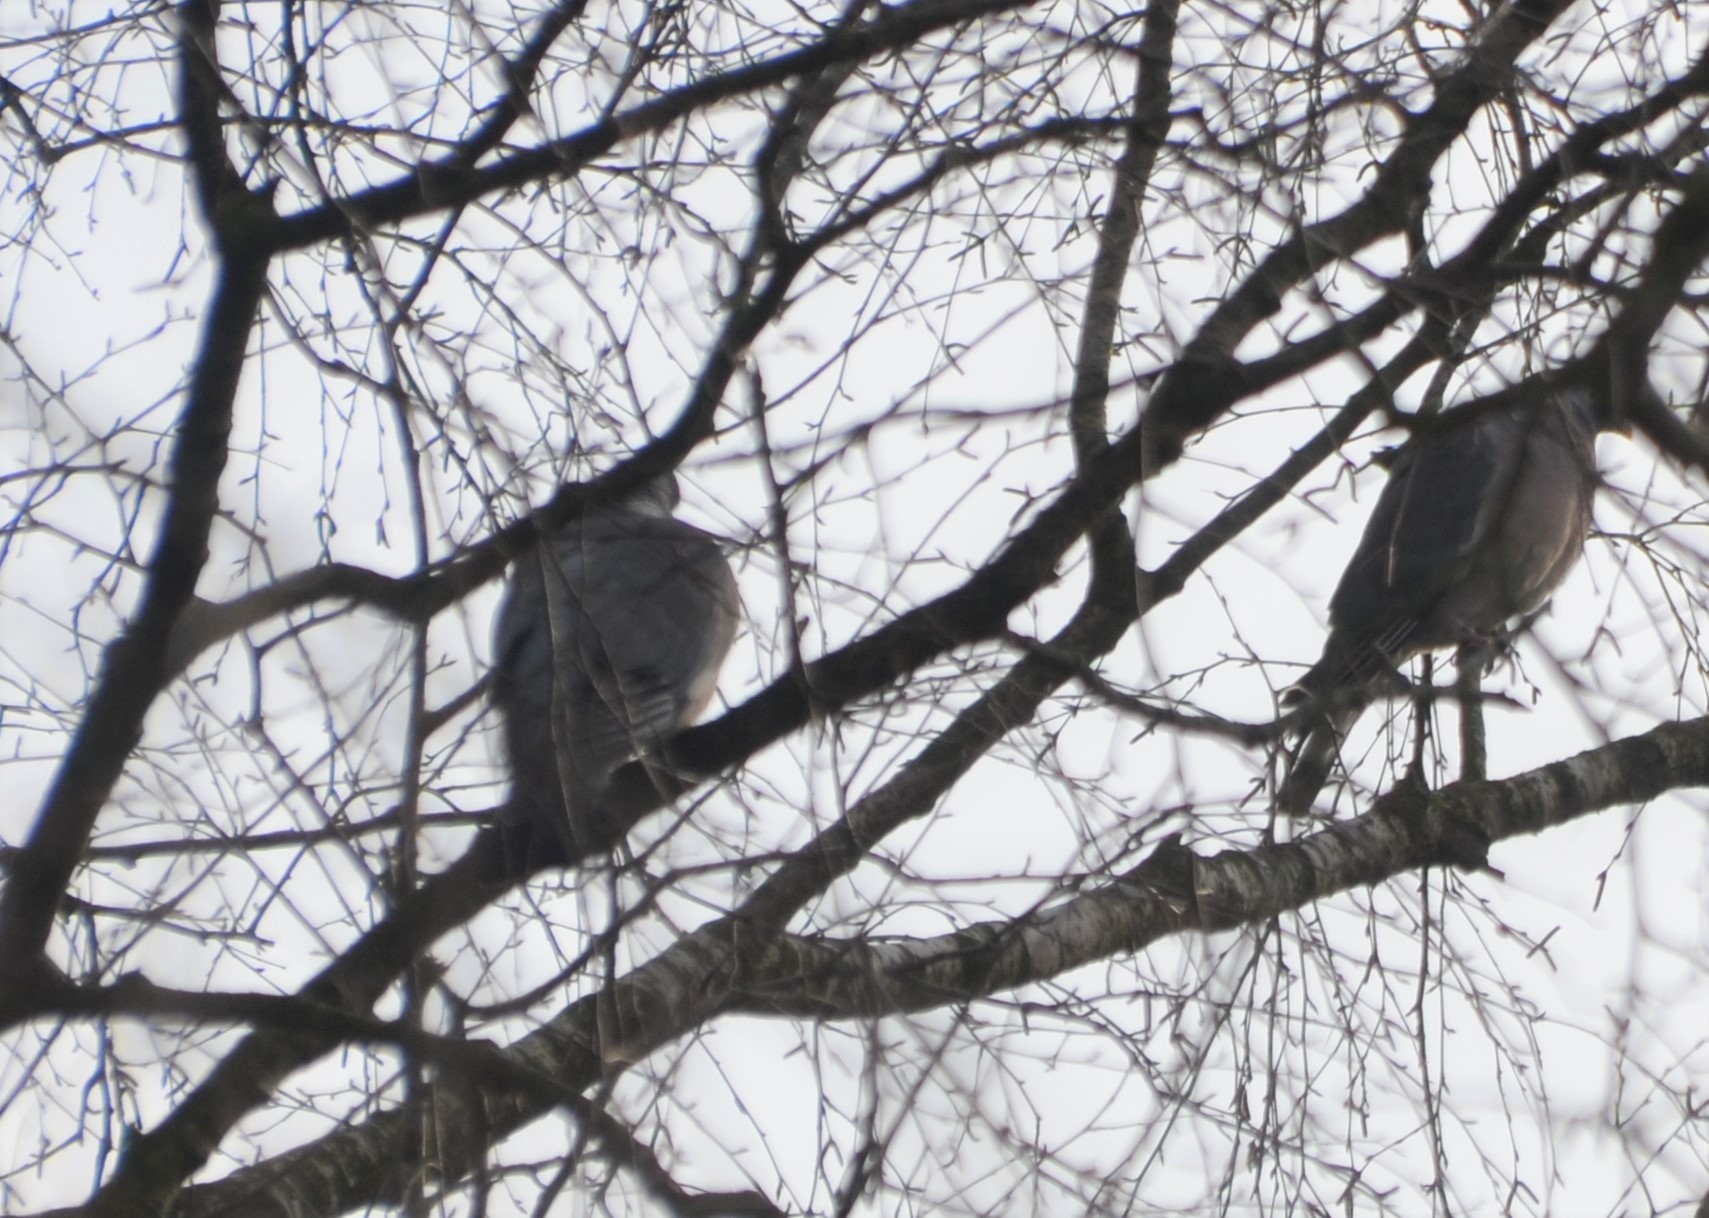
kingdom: Animalia
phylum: Chordata
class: Aves
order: Columbiformes
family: Columbidae
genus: Columba
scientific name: Columba palumbus
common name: Common wood pigeon
